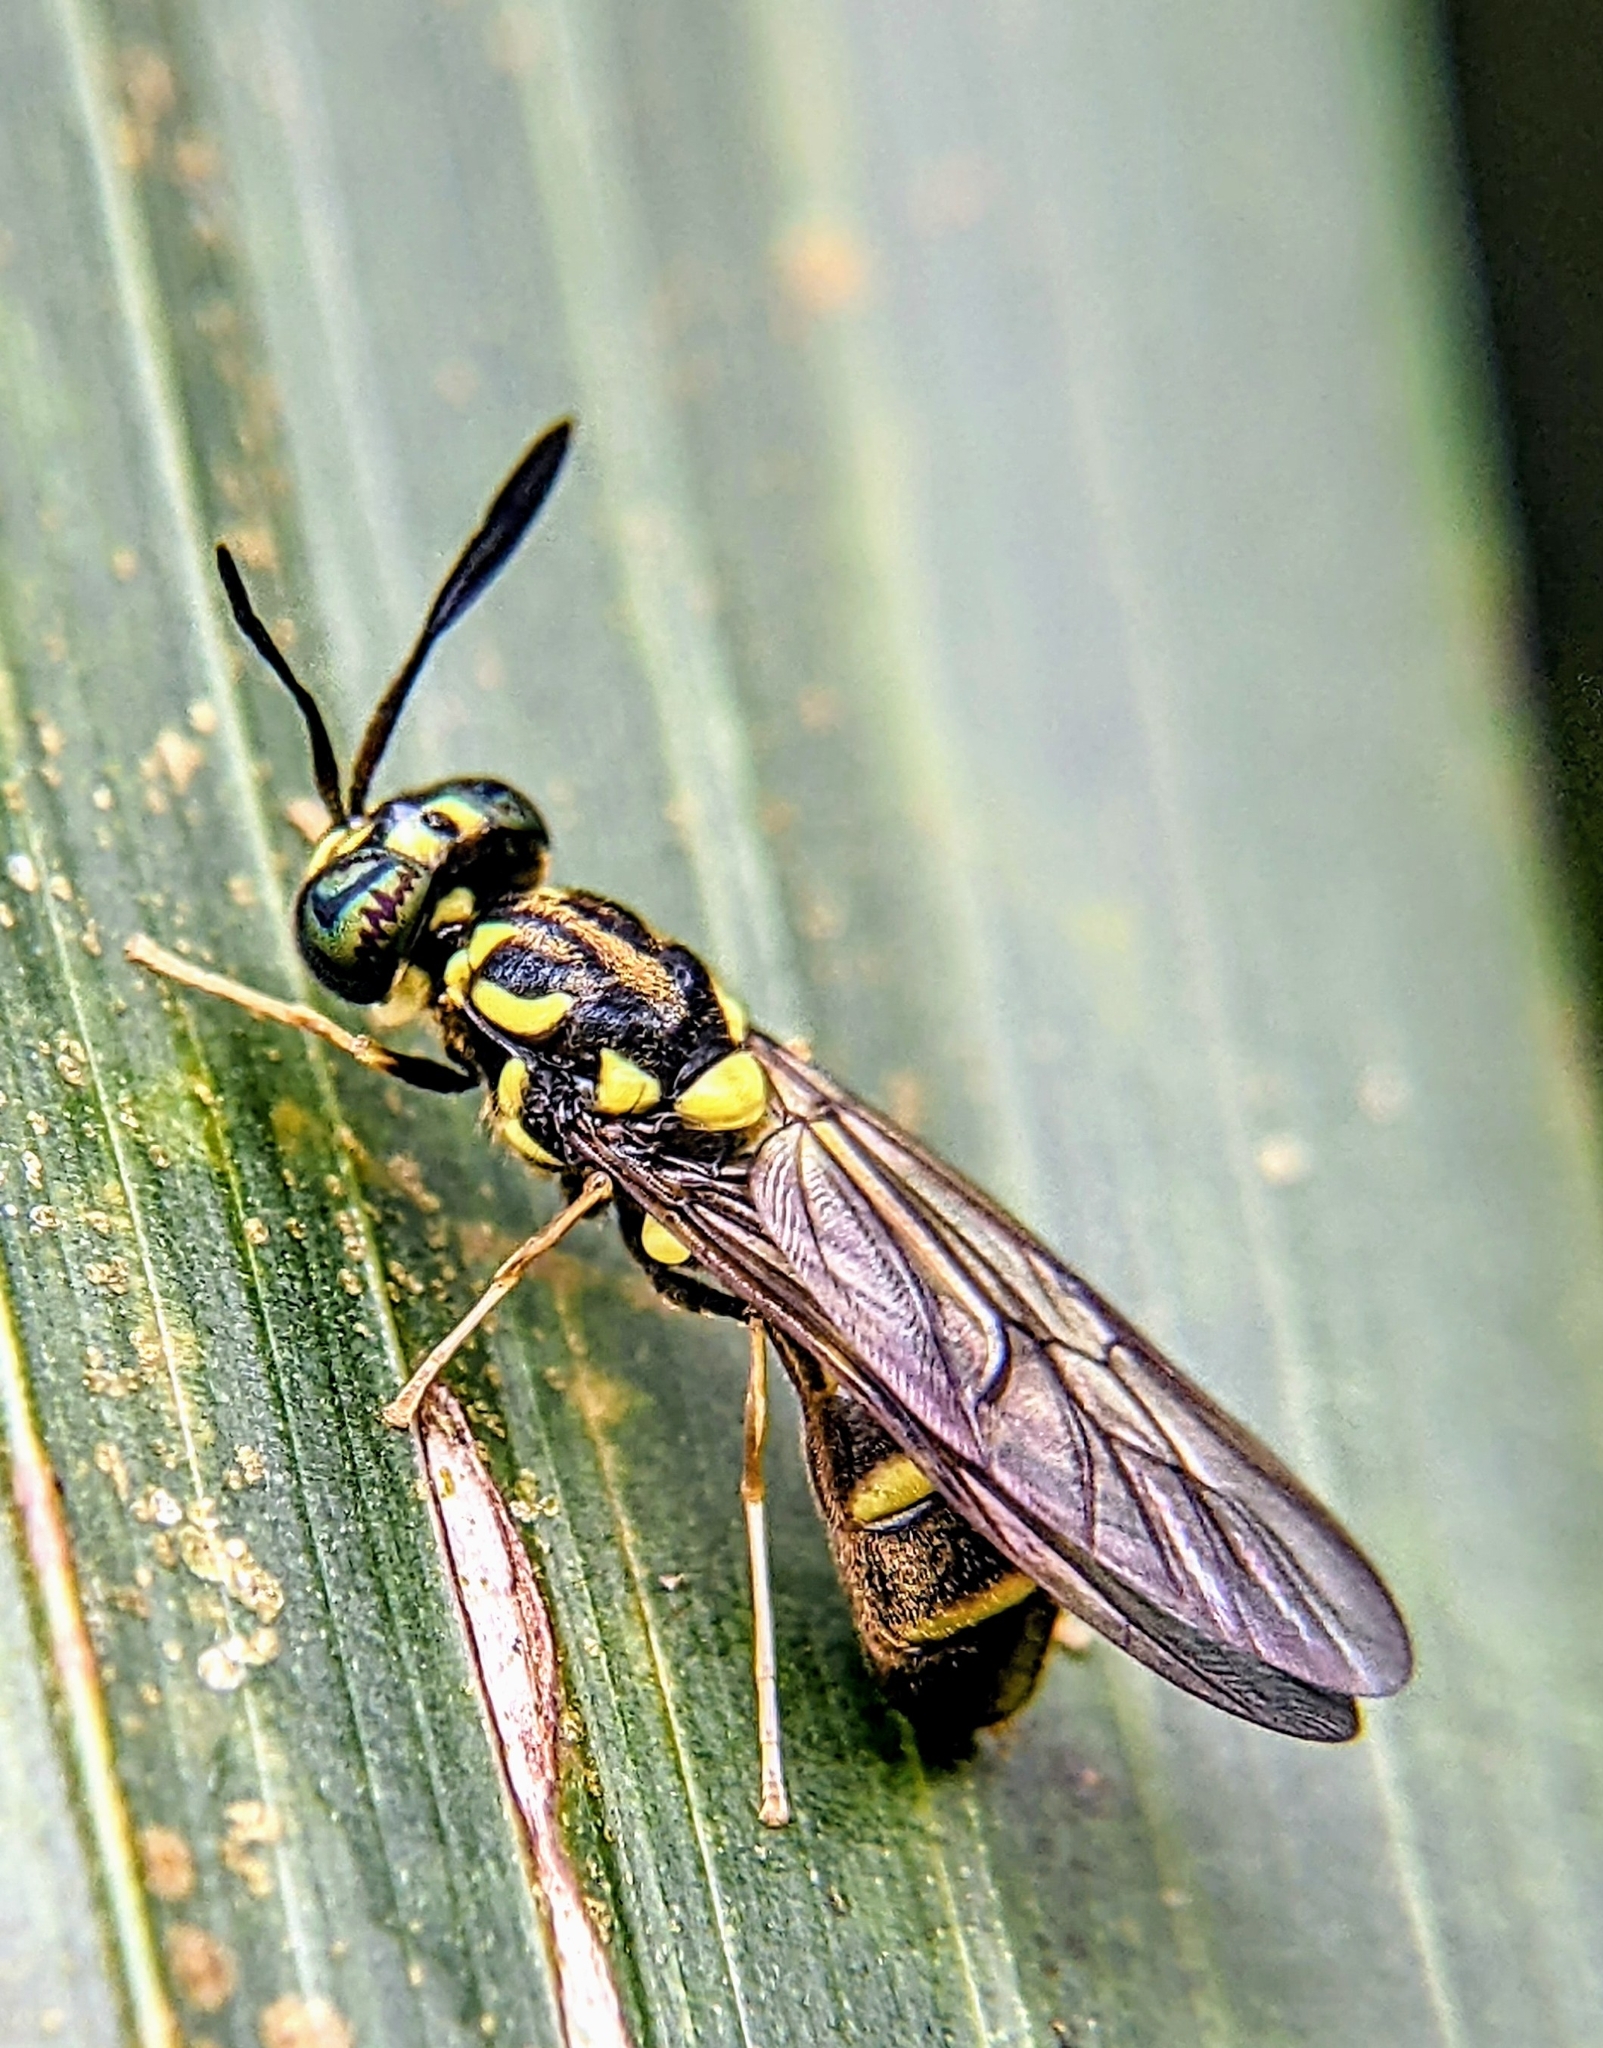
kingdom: Animalia
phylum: Arthropoda
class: Insecta
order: Diptera
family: Stratiomyidae
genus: Hermetia
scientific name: Hermetia laeta
